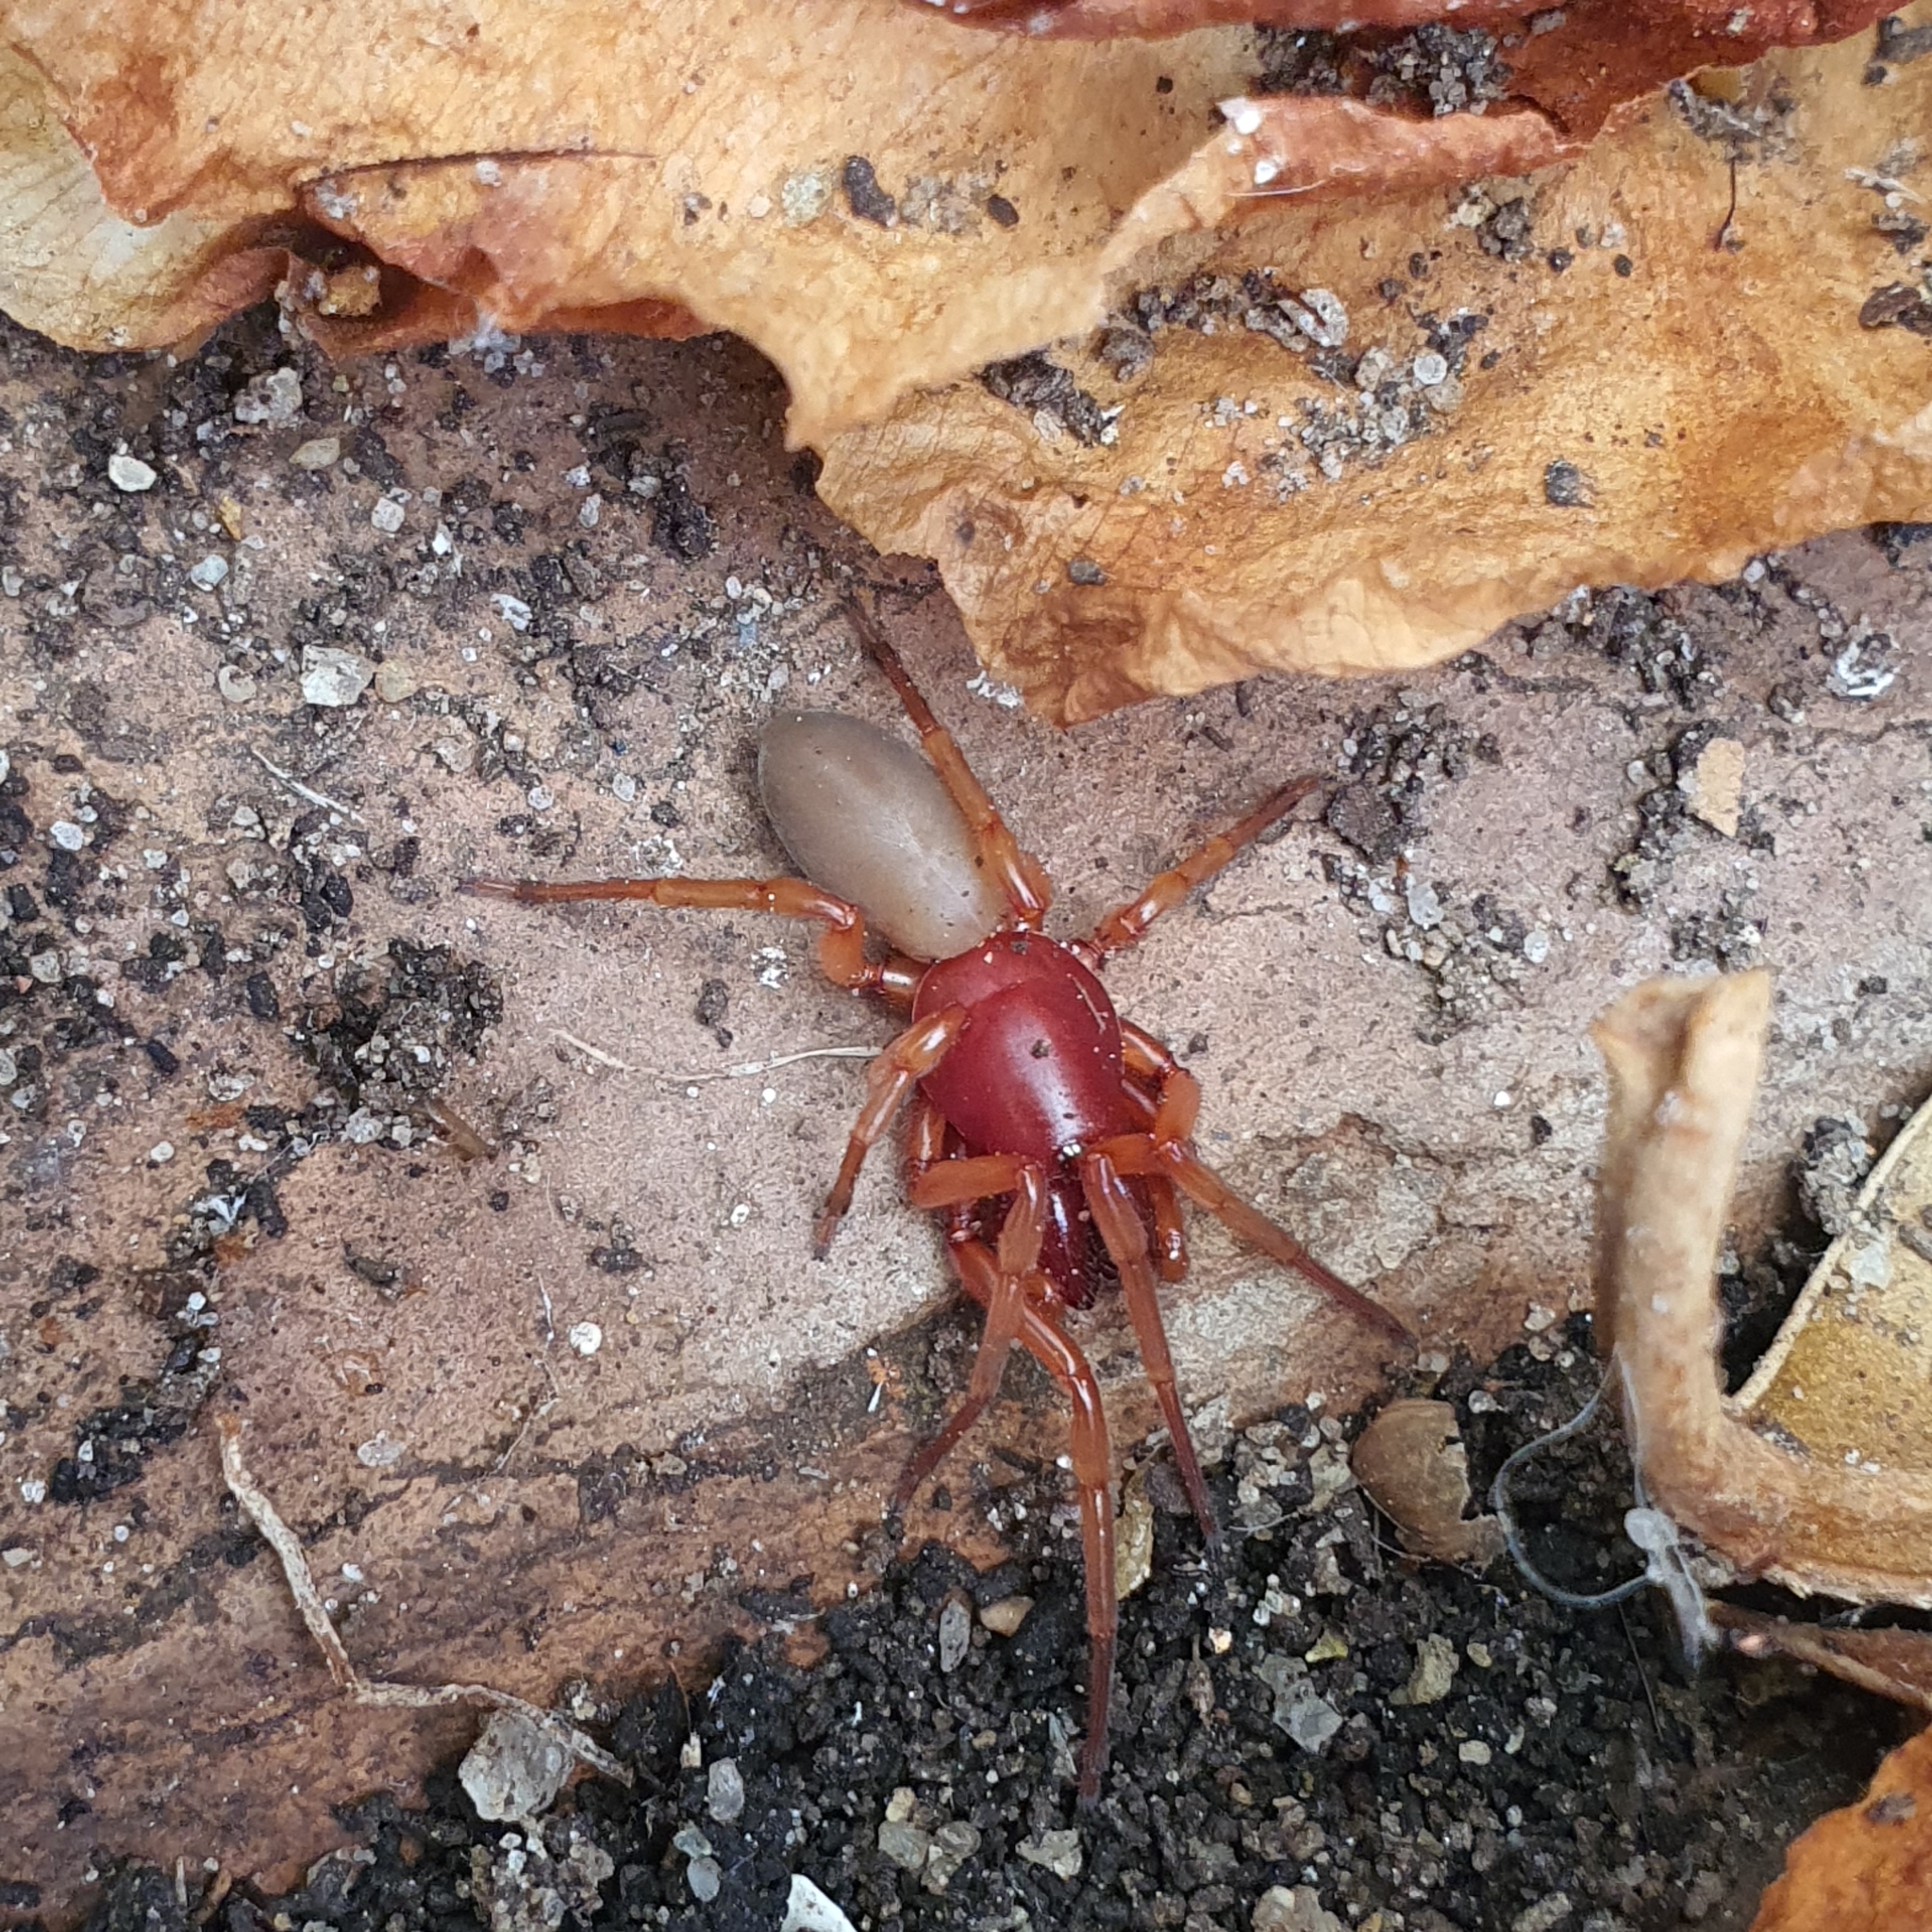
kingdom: Animalia
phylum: Arthropoda
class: Arachnida
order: Araneae
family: Dysderidae
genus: Dysdera
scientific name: Dysdera crocata
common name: Woodlouse spider
